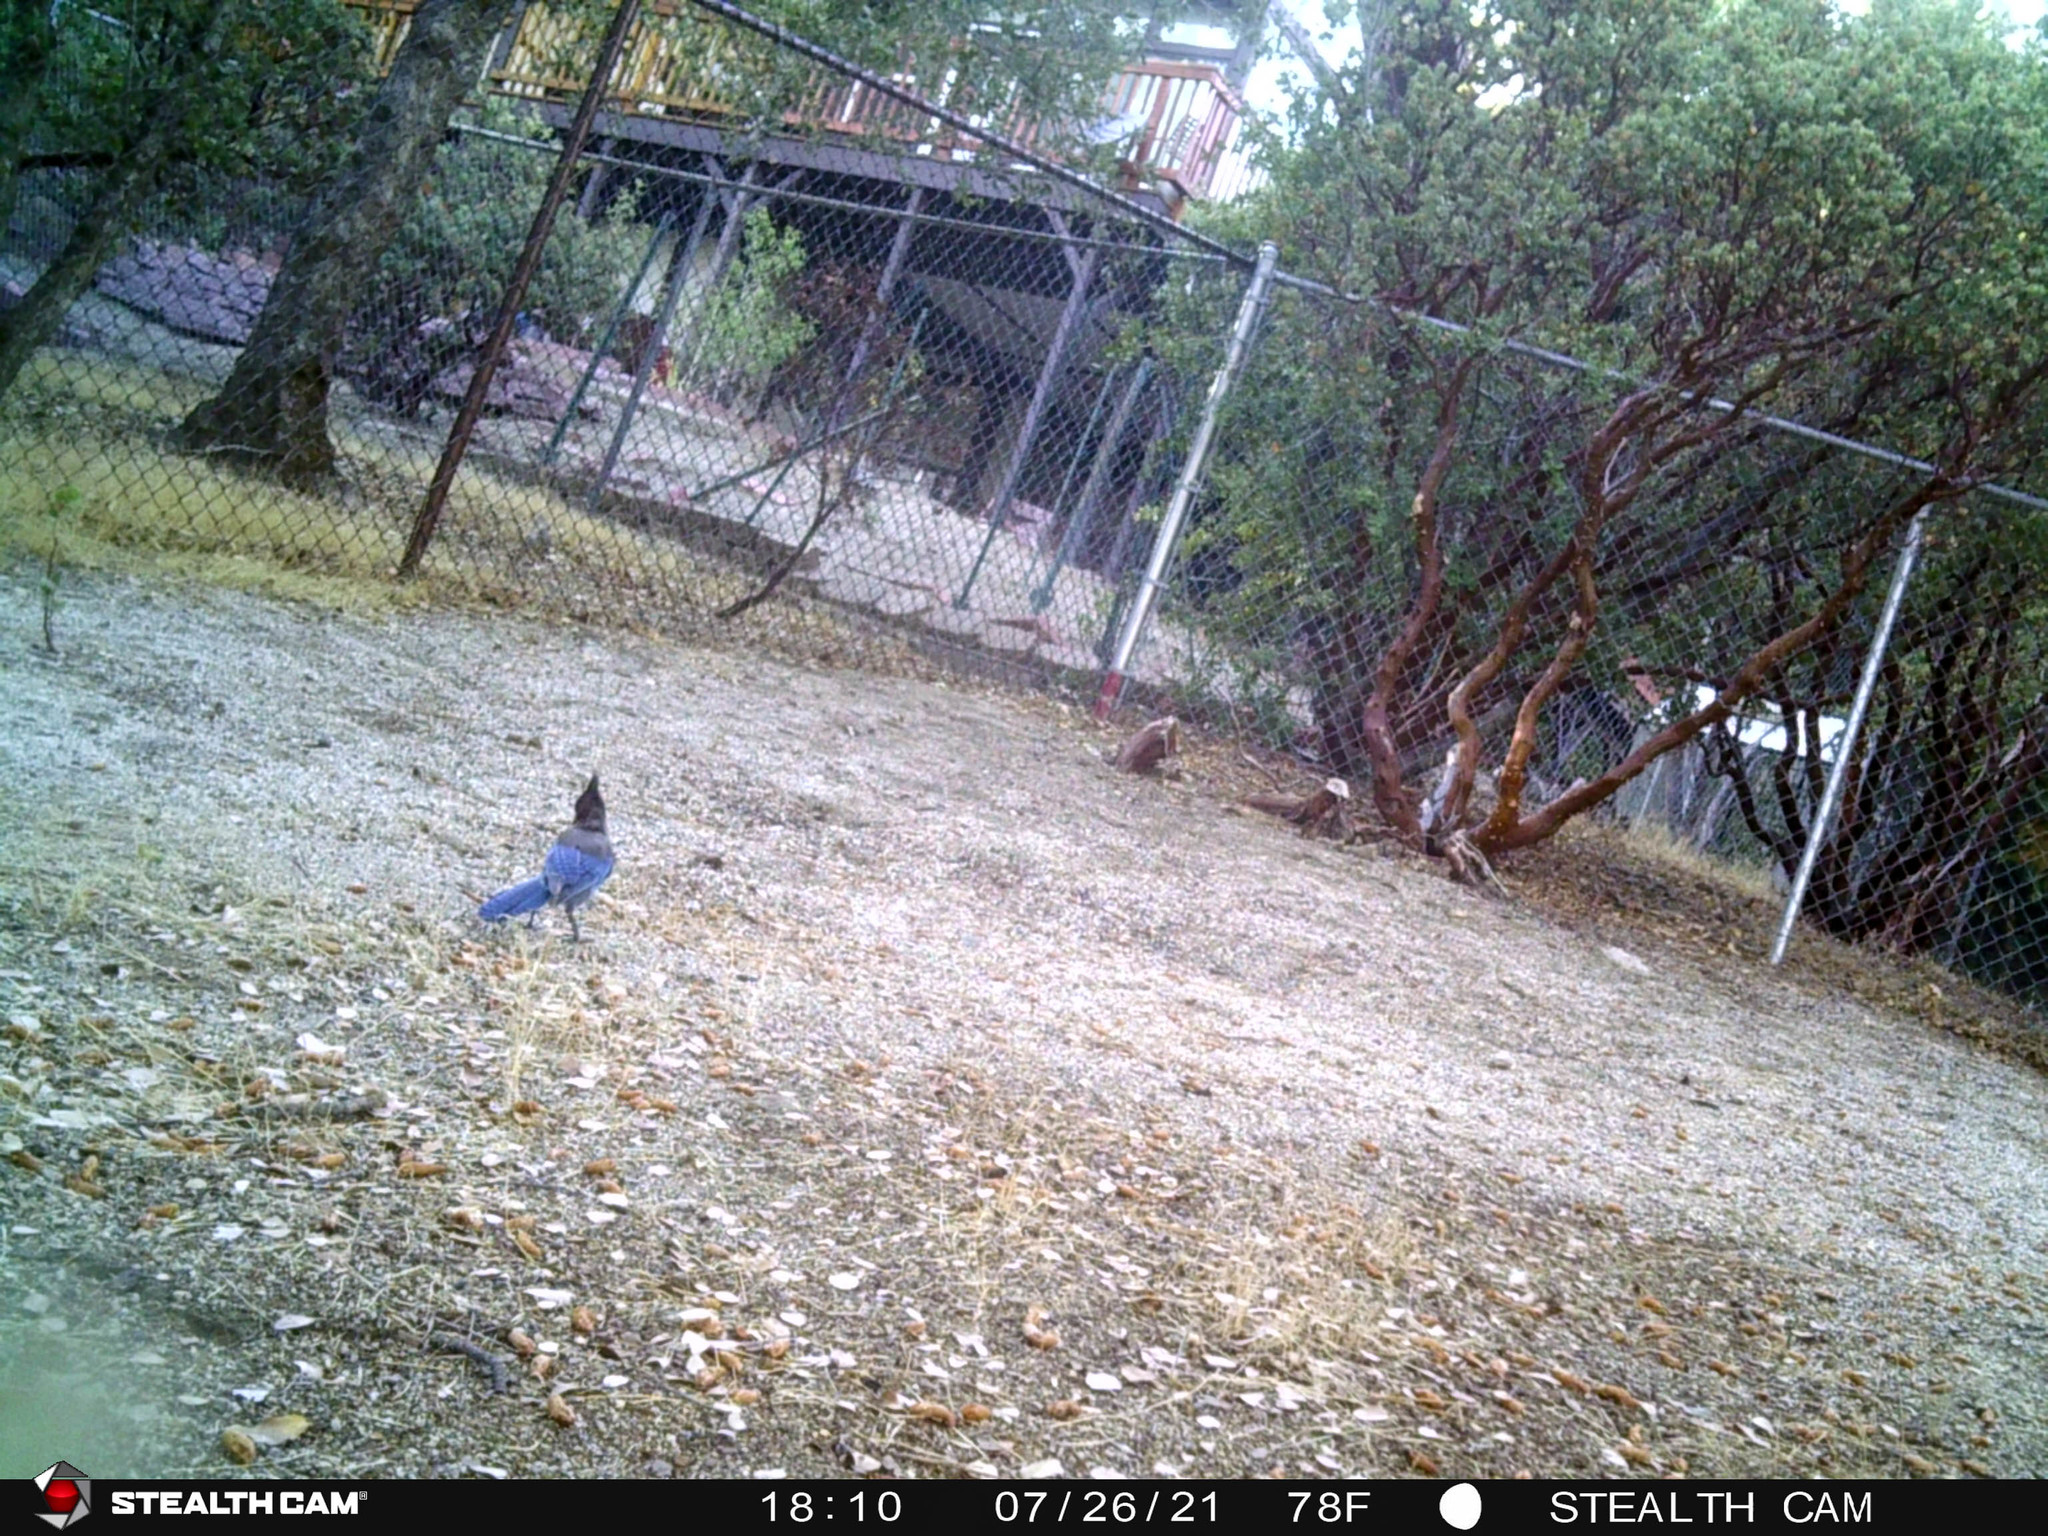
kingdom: Animalia
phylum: Chordata
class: Aves
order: Passeriformes
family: Corvidae
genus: Cyanocitta
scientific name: Cyanocitta stelleri
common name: Steller's jay
